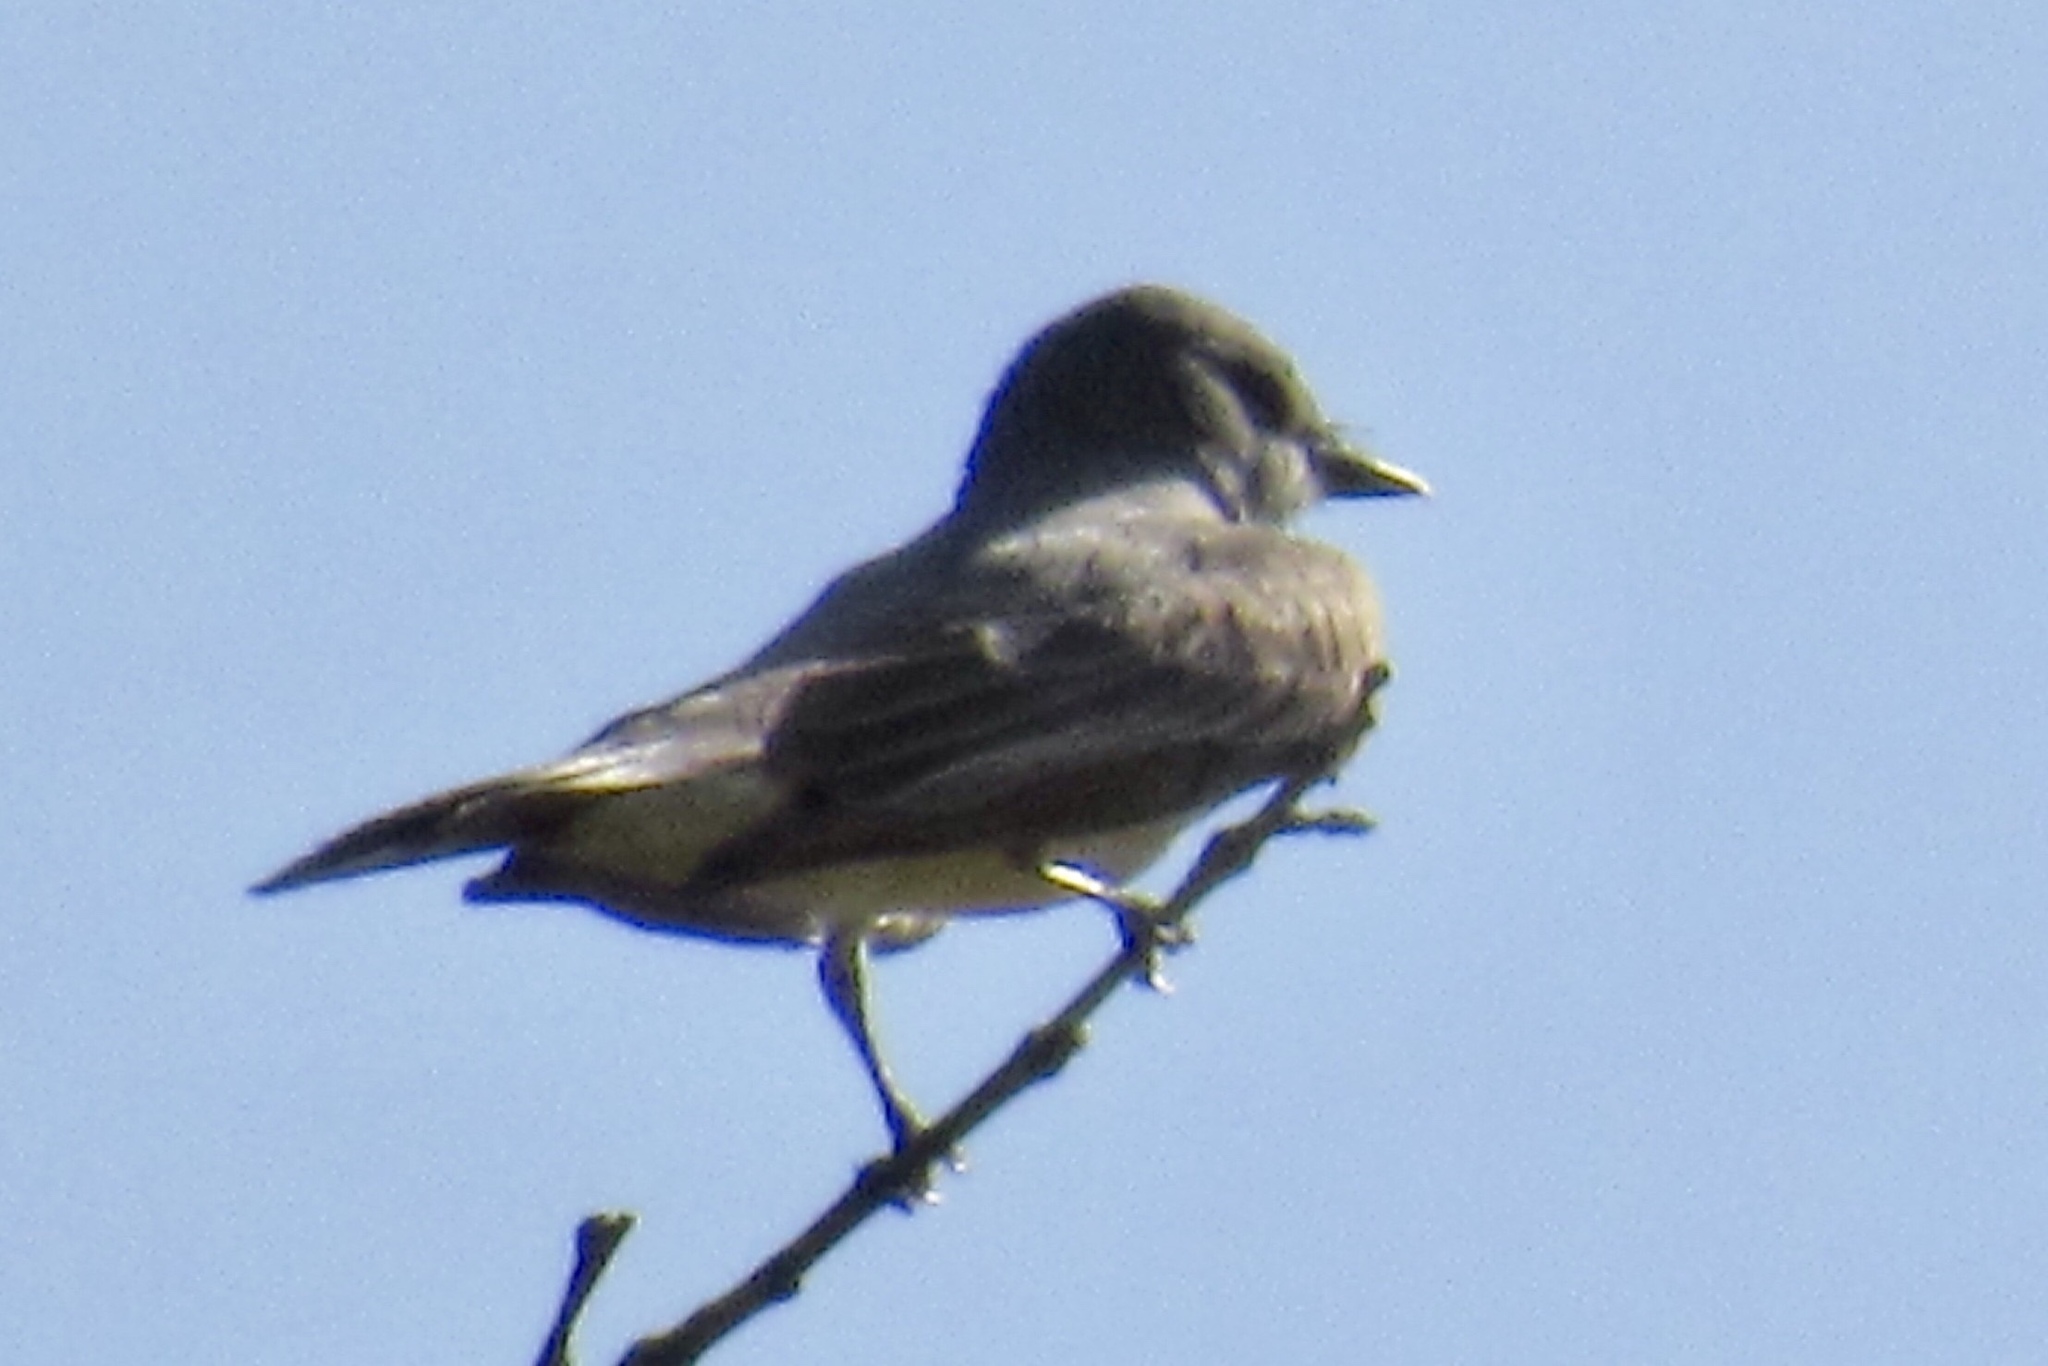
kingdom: Animalia
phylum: Chordata
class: Aves
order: Passeriformes
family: Tyrannidae
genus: Tyrannus
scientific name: Tyrannus vociferans
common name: Cassin's kingbird
